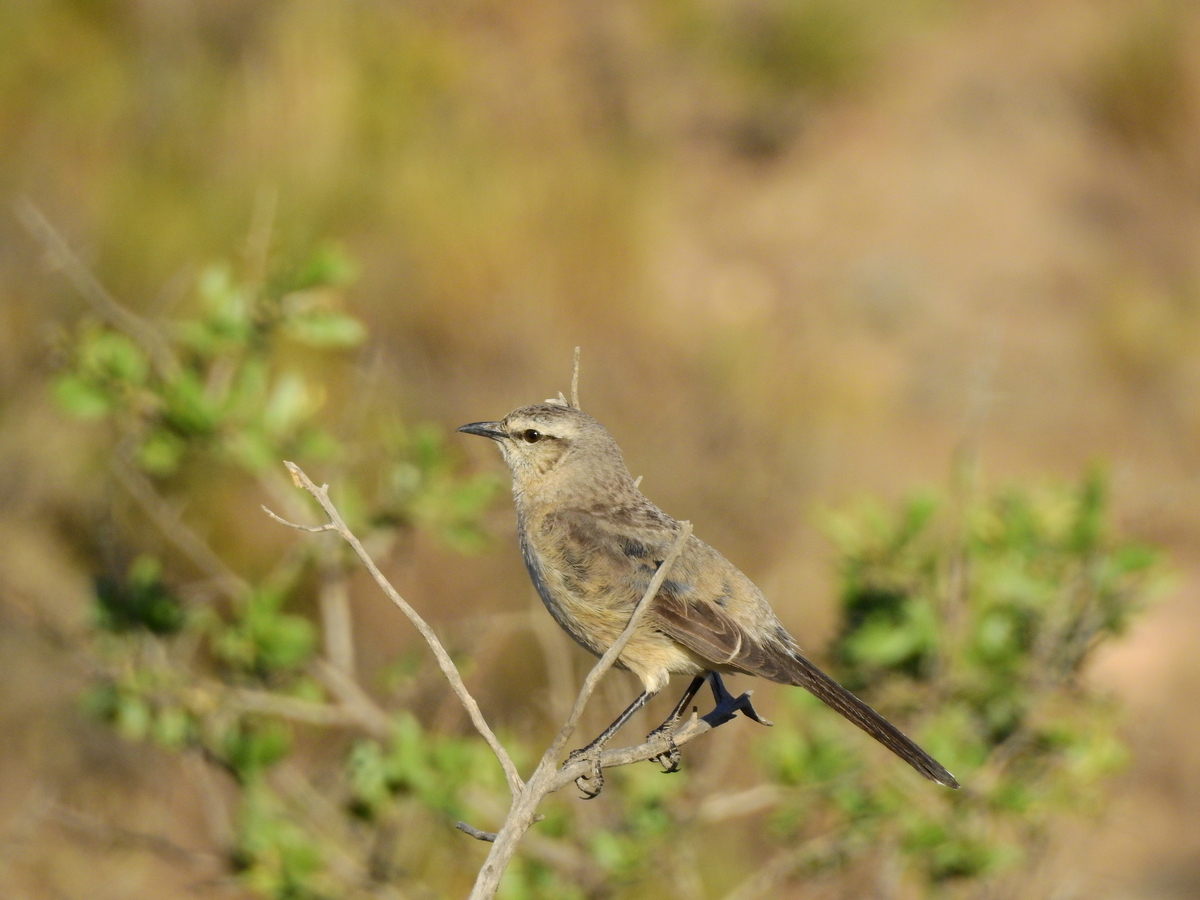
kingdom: Animalia
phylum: Chordata
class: Aves
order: Passeriformes
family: Mimidae
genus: Mimus
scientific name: Mimus patagonicus
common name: Patagonian mockingbird
